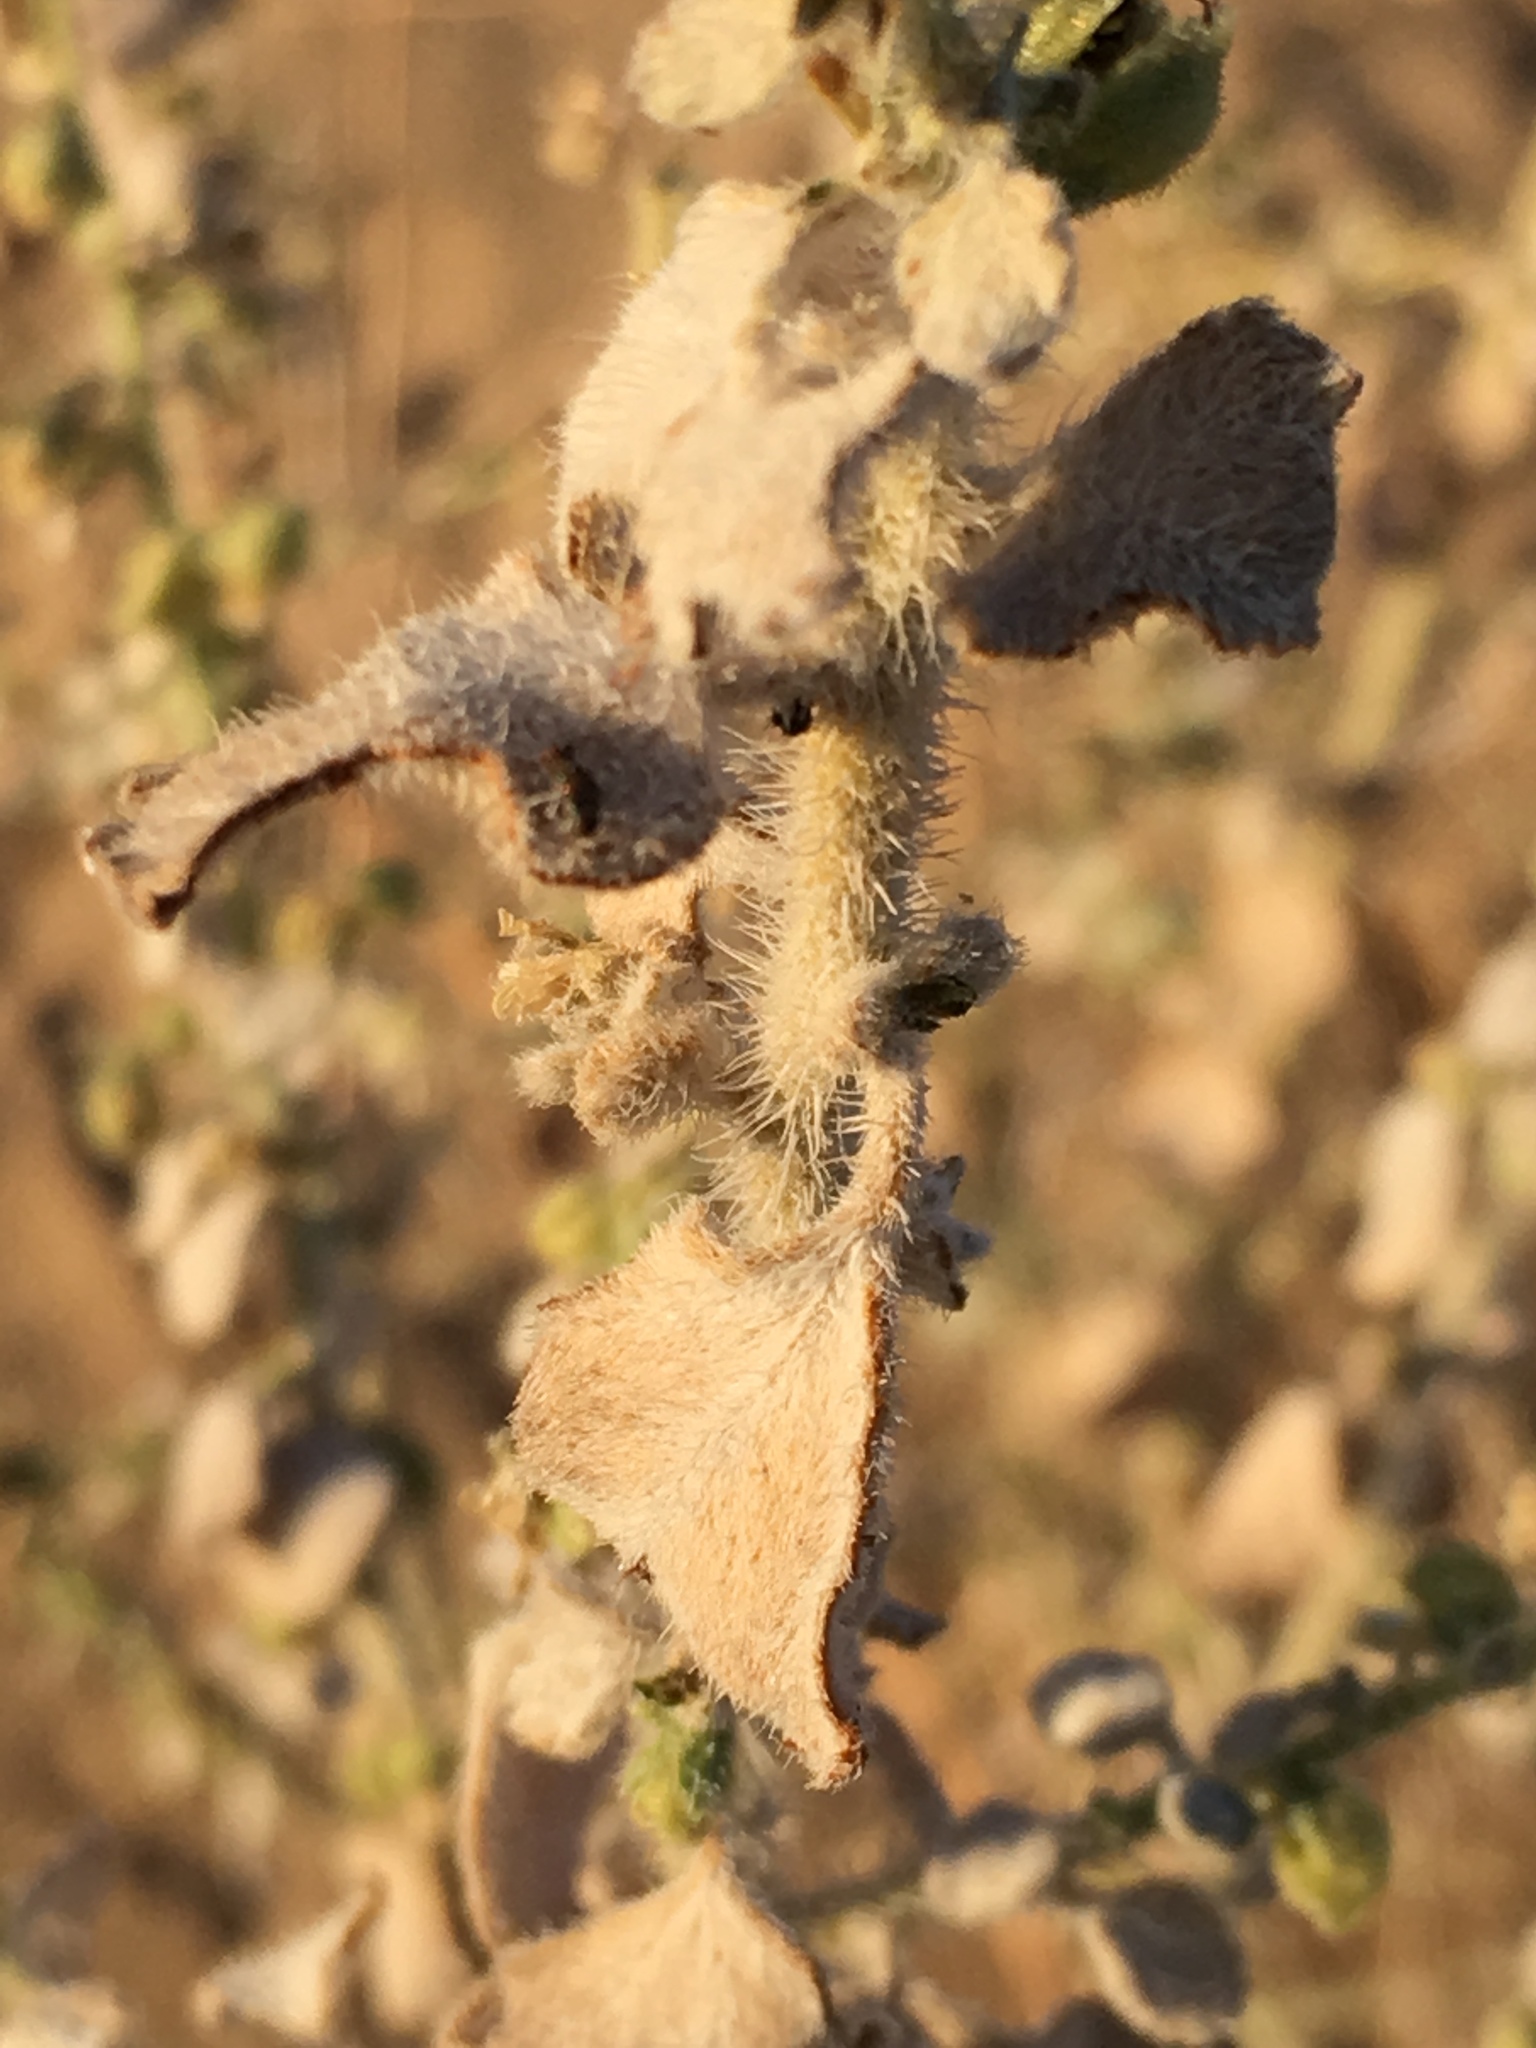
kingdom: Plantae
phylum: Tracheophyta
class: Magnoliopsida
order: Asterales
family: Asteraceae
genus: Dicoria
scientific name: Dicoria canescens
